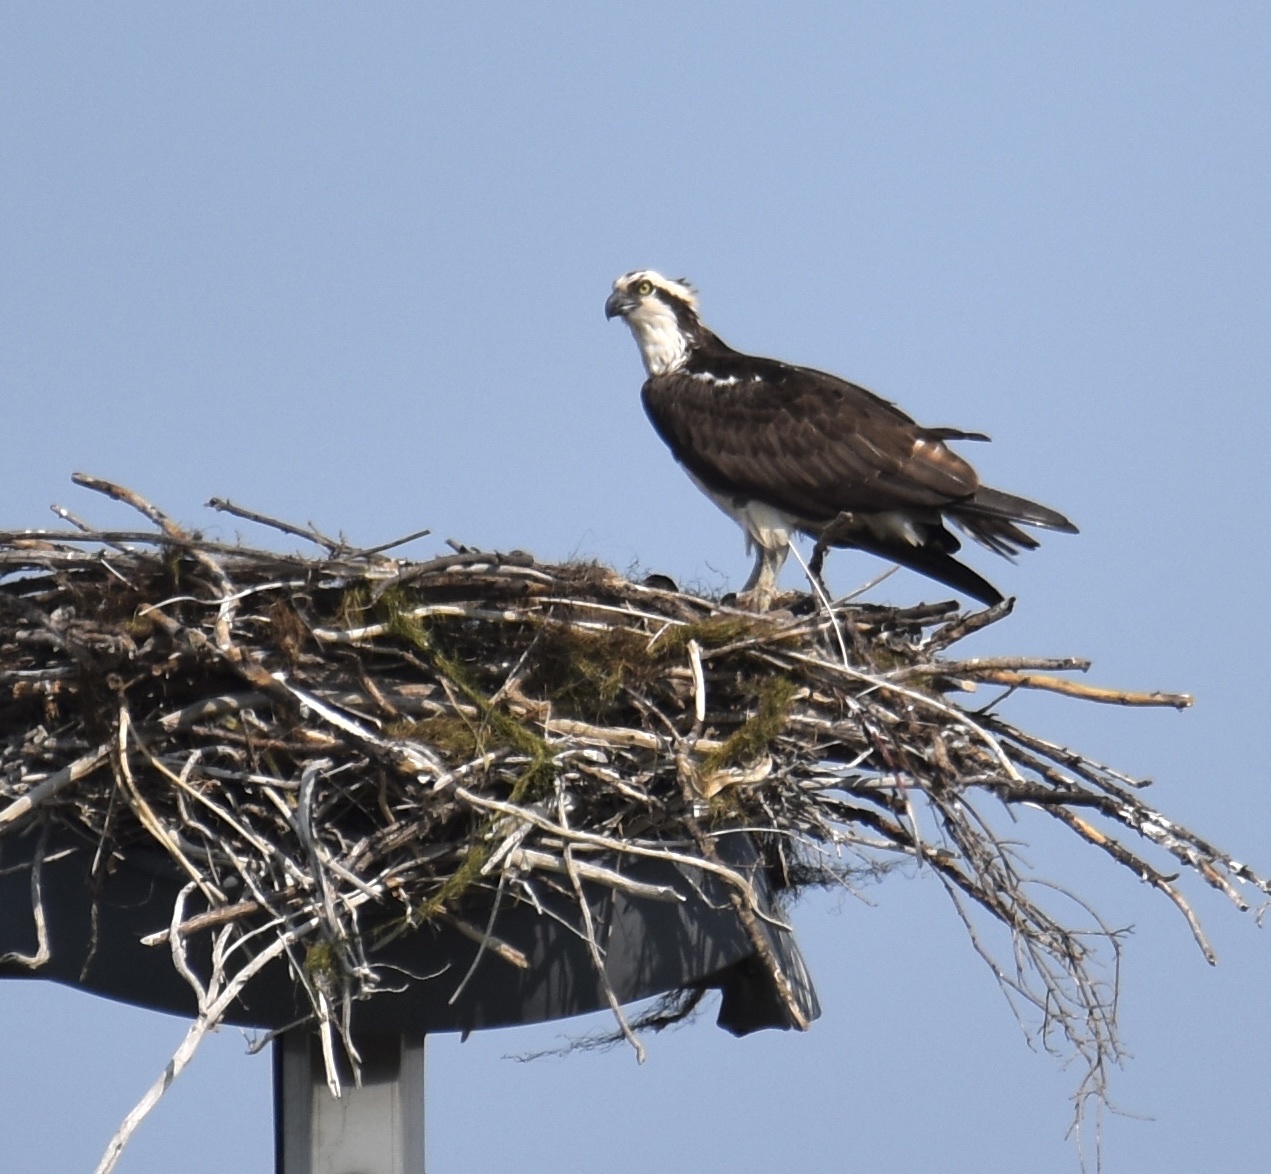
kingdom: Animalia
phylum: Chordata
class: Aves
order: Accipitriformes
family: Pandionidae
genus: Pandion
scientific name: Pandion haliaetus
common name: Osprey
